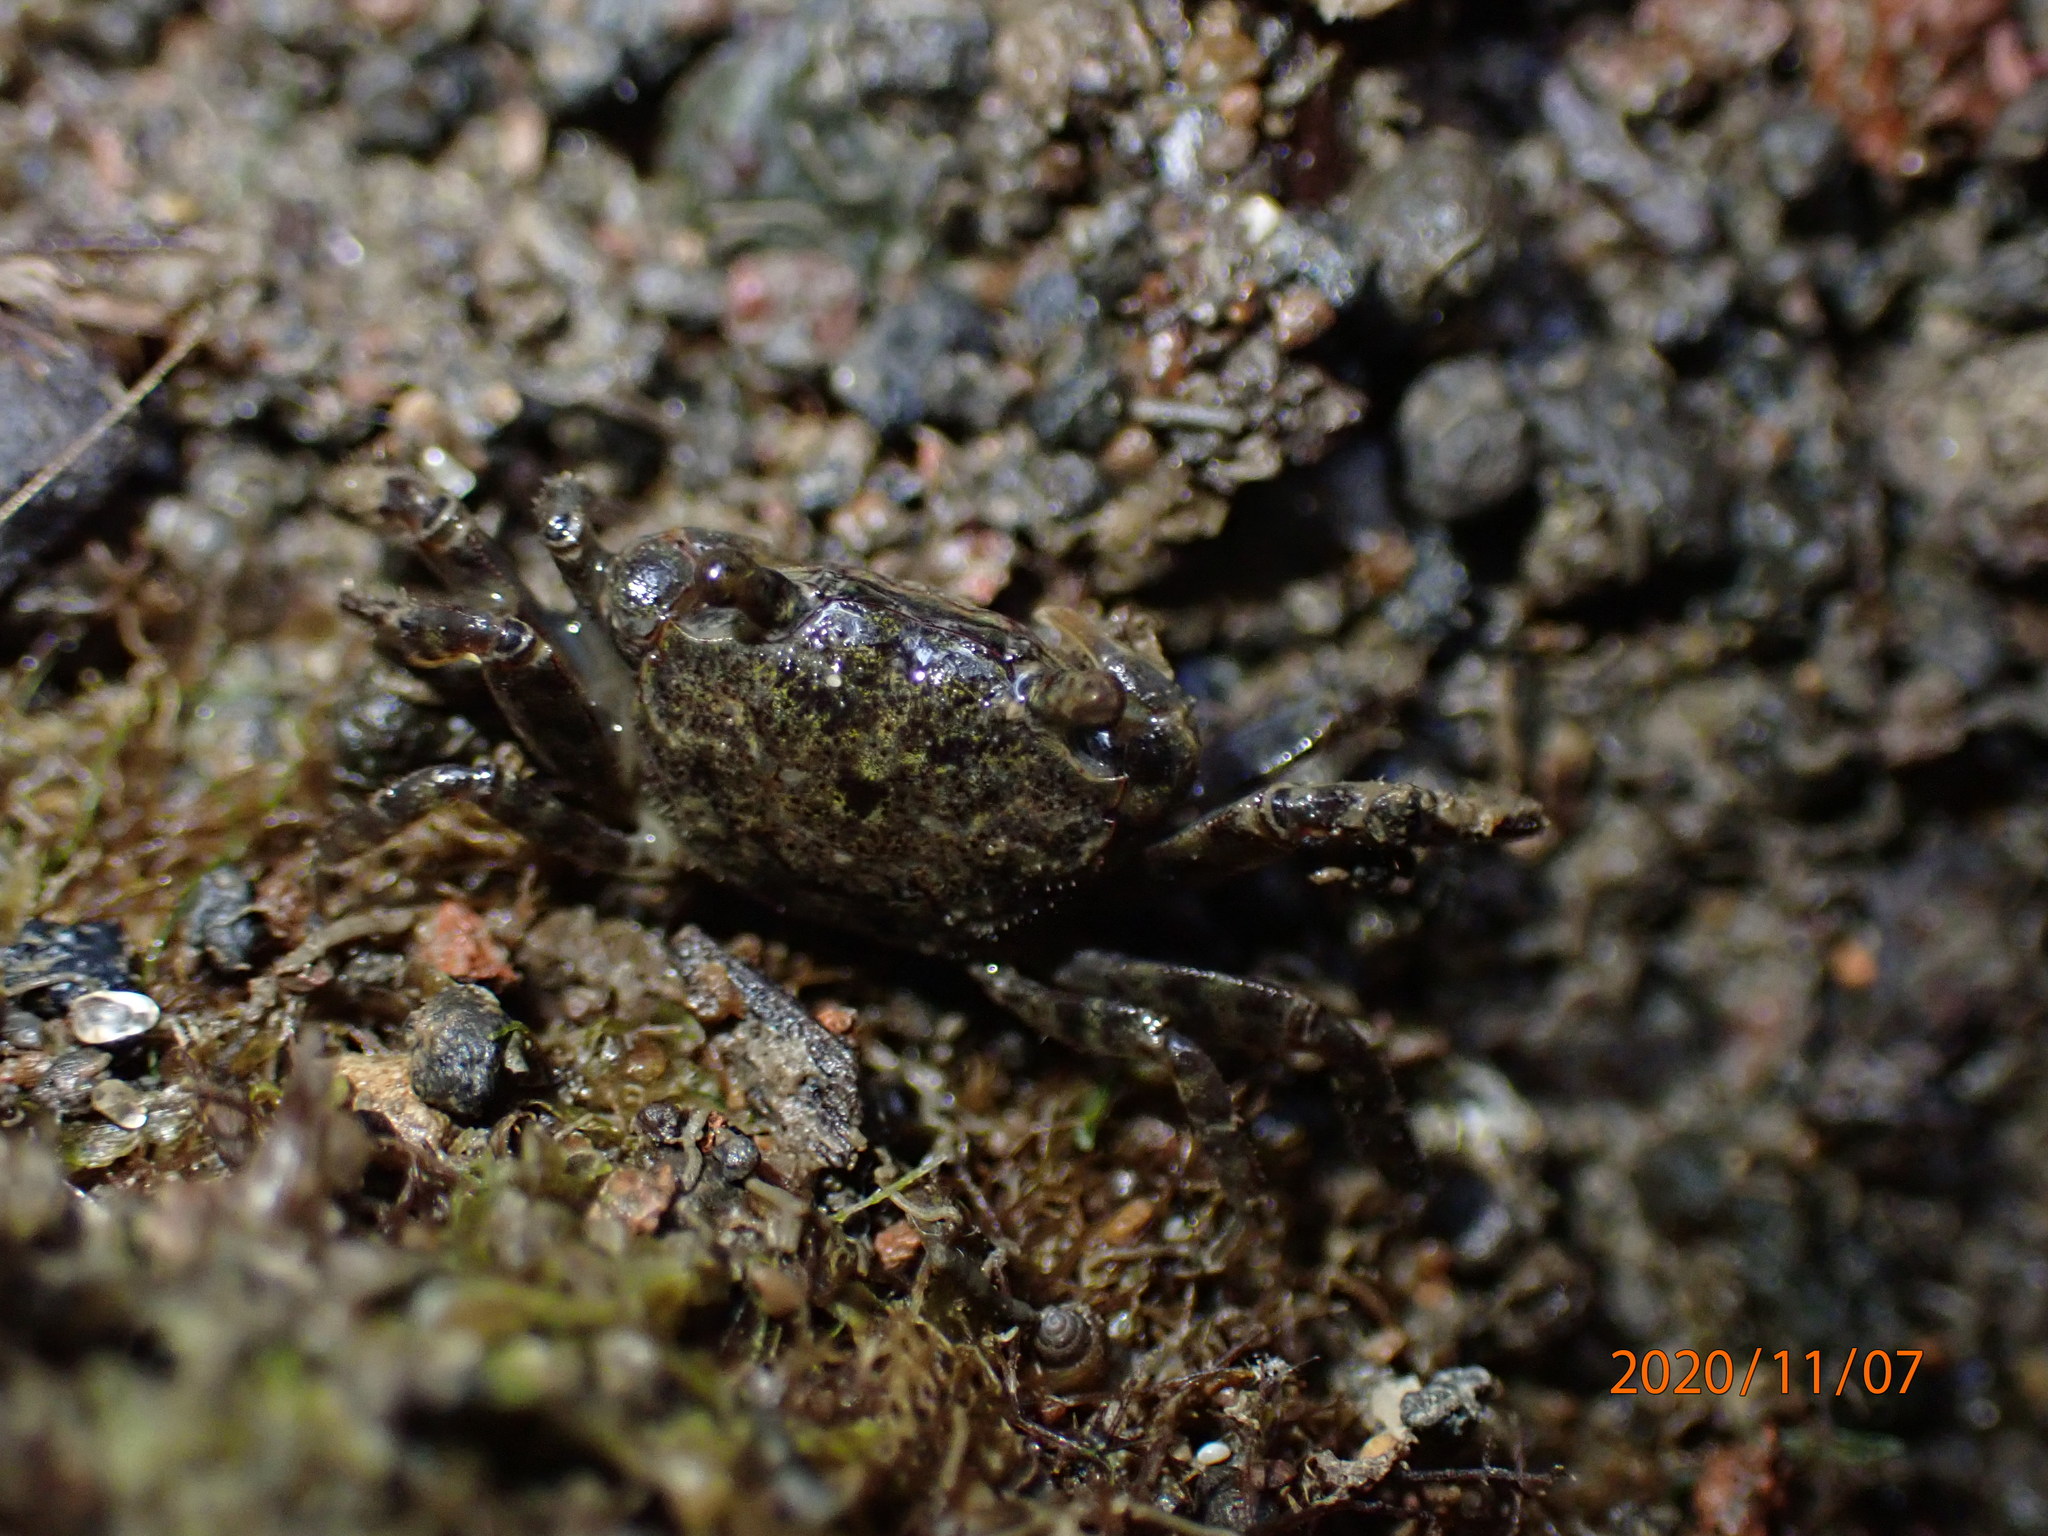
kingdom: Animalia
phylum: Arthropoda
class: Malacostraca
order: Decapoda
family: Varunidae
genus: Hemigrapsus
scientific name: Hemigrapsus sexdentatus
